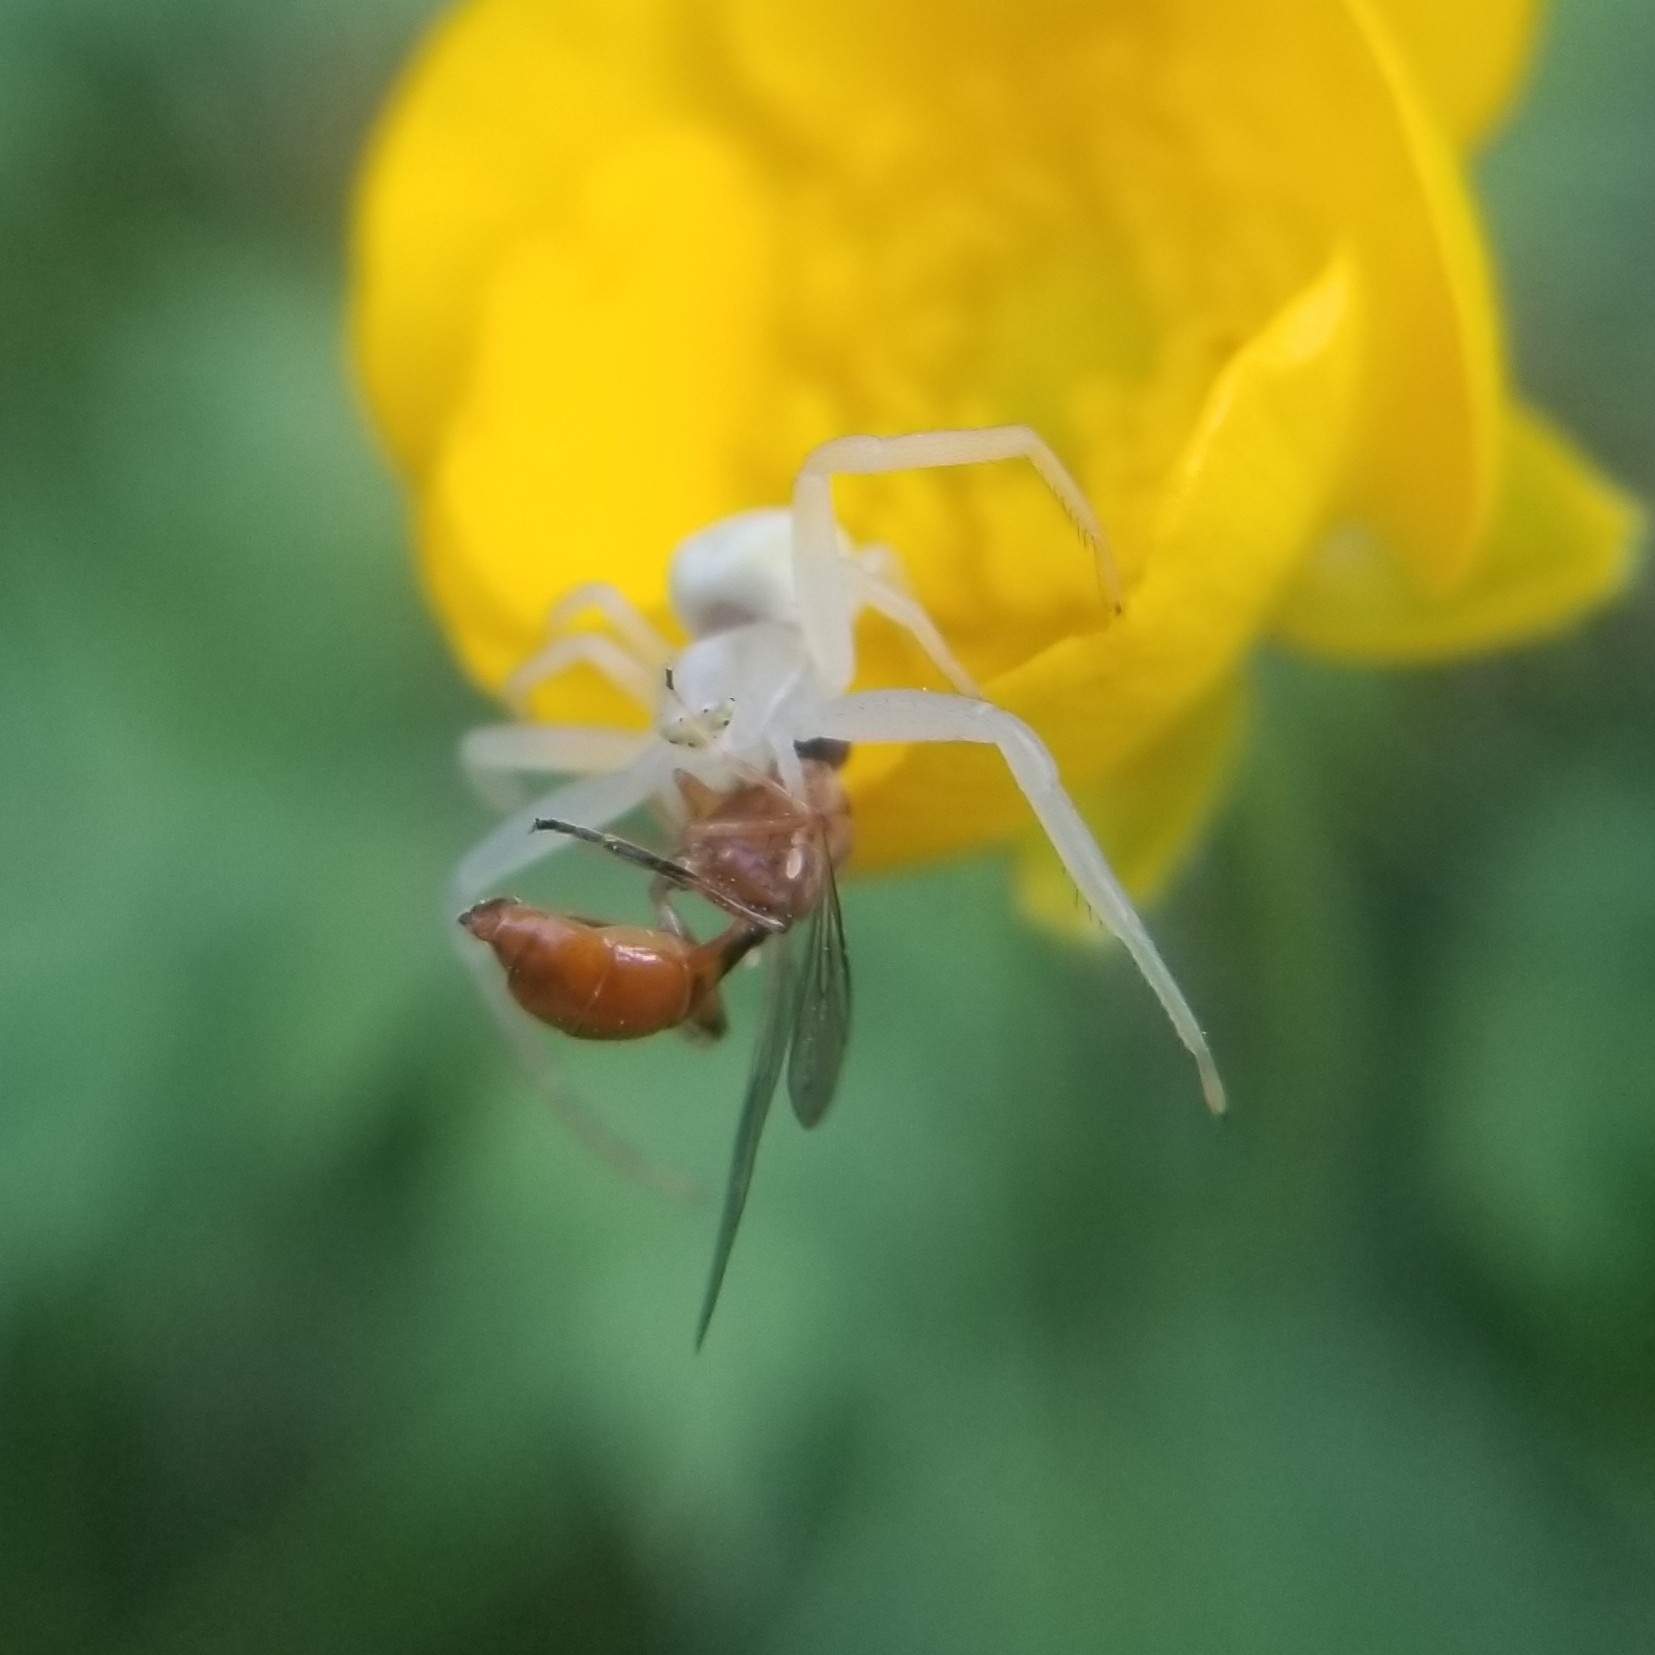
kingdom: Animalia
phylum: Arthropoda
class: Arachnida
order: Araneae
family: Thomisidae
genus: Misumena
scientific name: Misumena vatia
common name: Goldenrod crab spider
